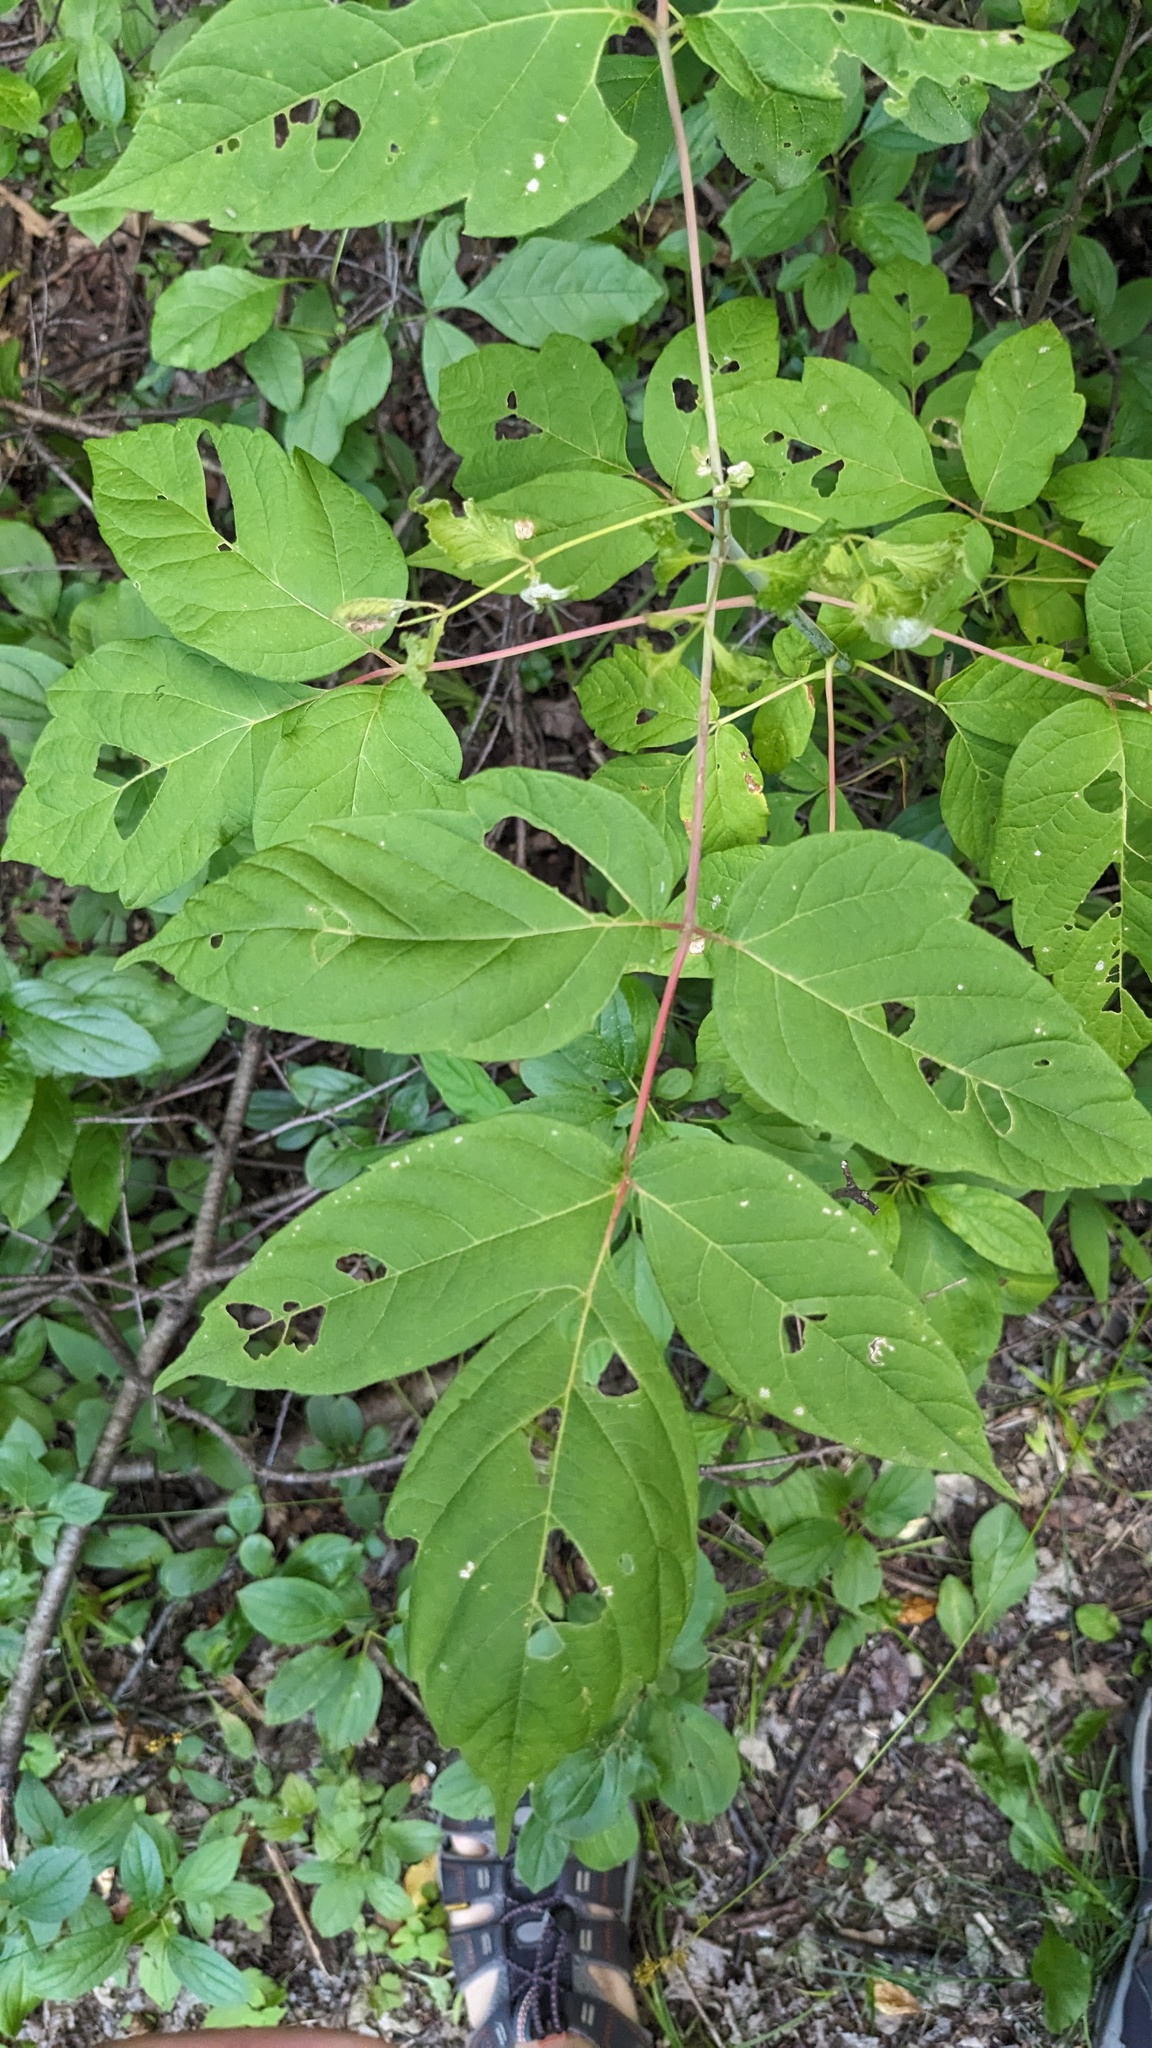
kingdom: Plantae
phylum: Tracheophyta
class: Magnoliopsida
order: Sapindales
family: Sapindaceae
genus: Acer
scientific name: Acer negundo
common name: Ashleaf maple
